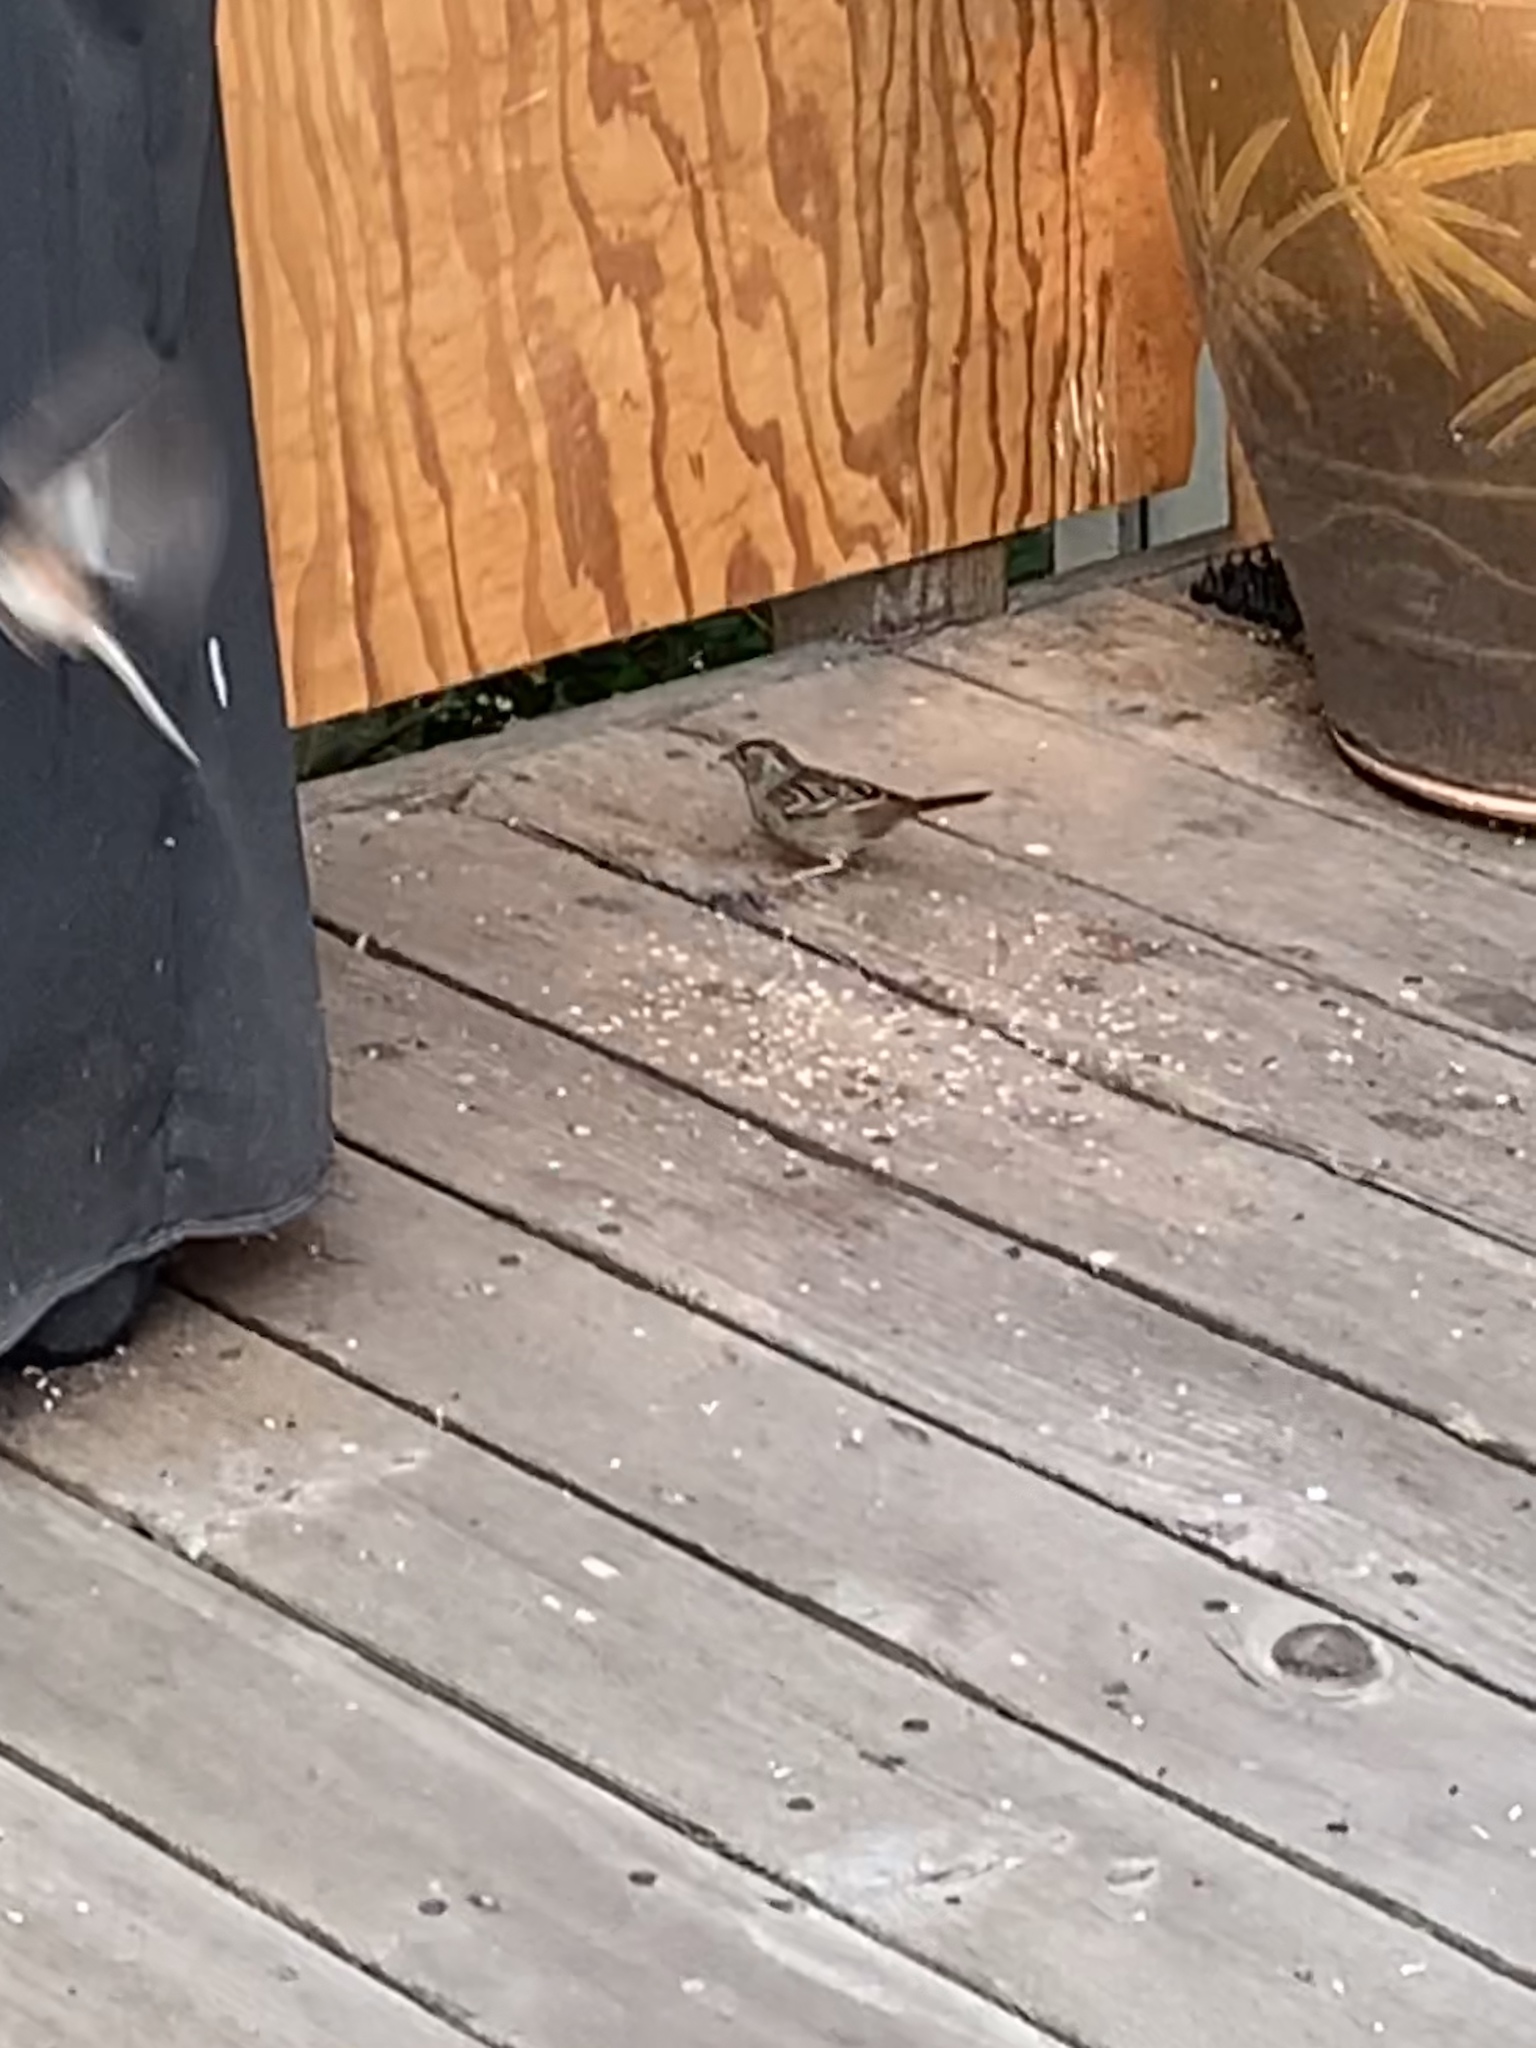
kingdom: Animalia
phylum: Chordata
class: Aves
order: Passeriformes
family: Passerellidae
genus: Zonotrichia
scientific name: Zonotrichia atricapilla
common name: Golden-crowned sparrow
